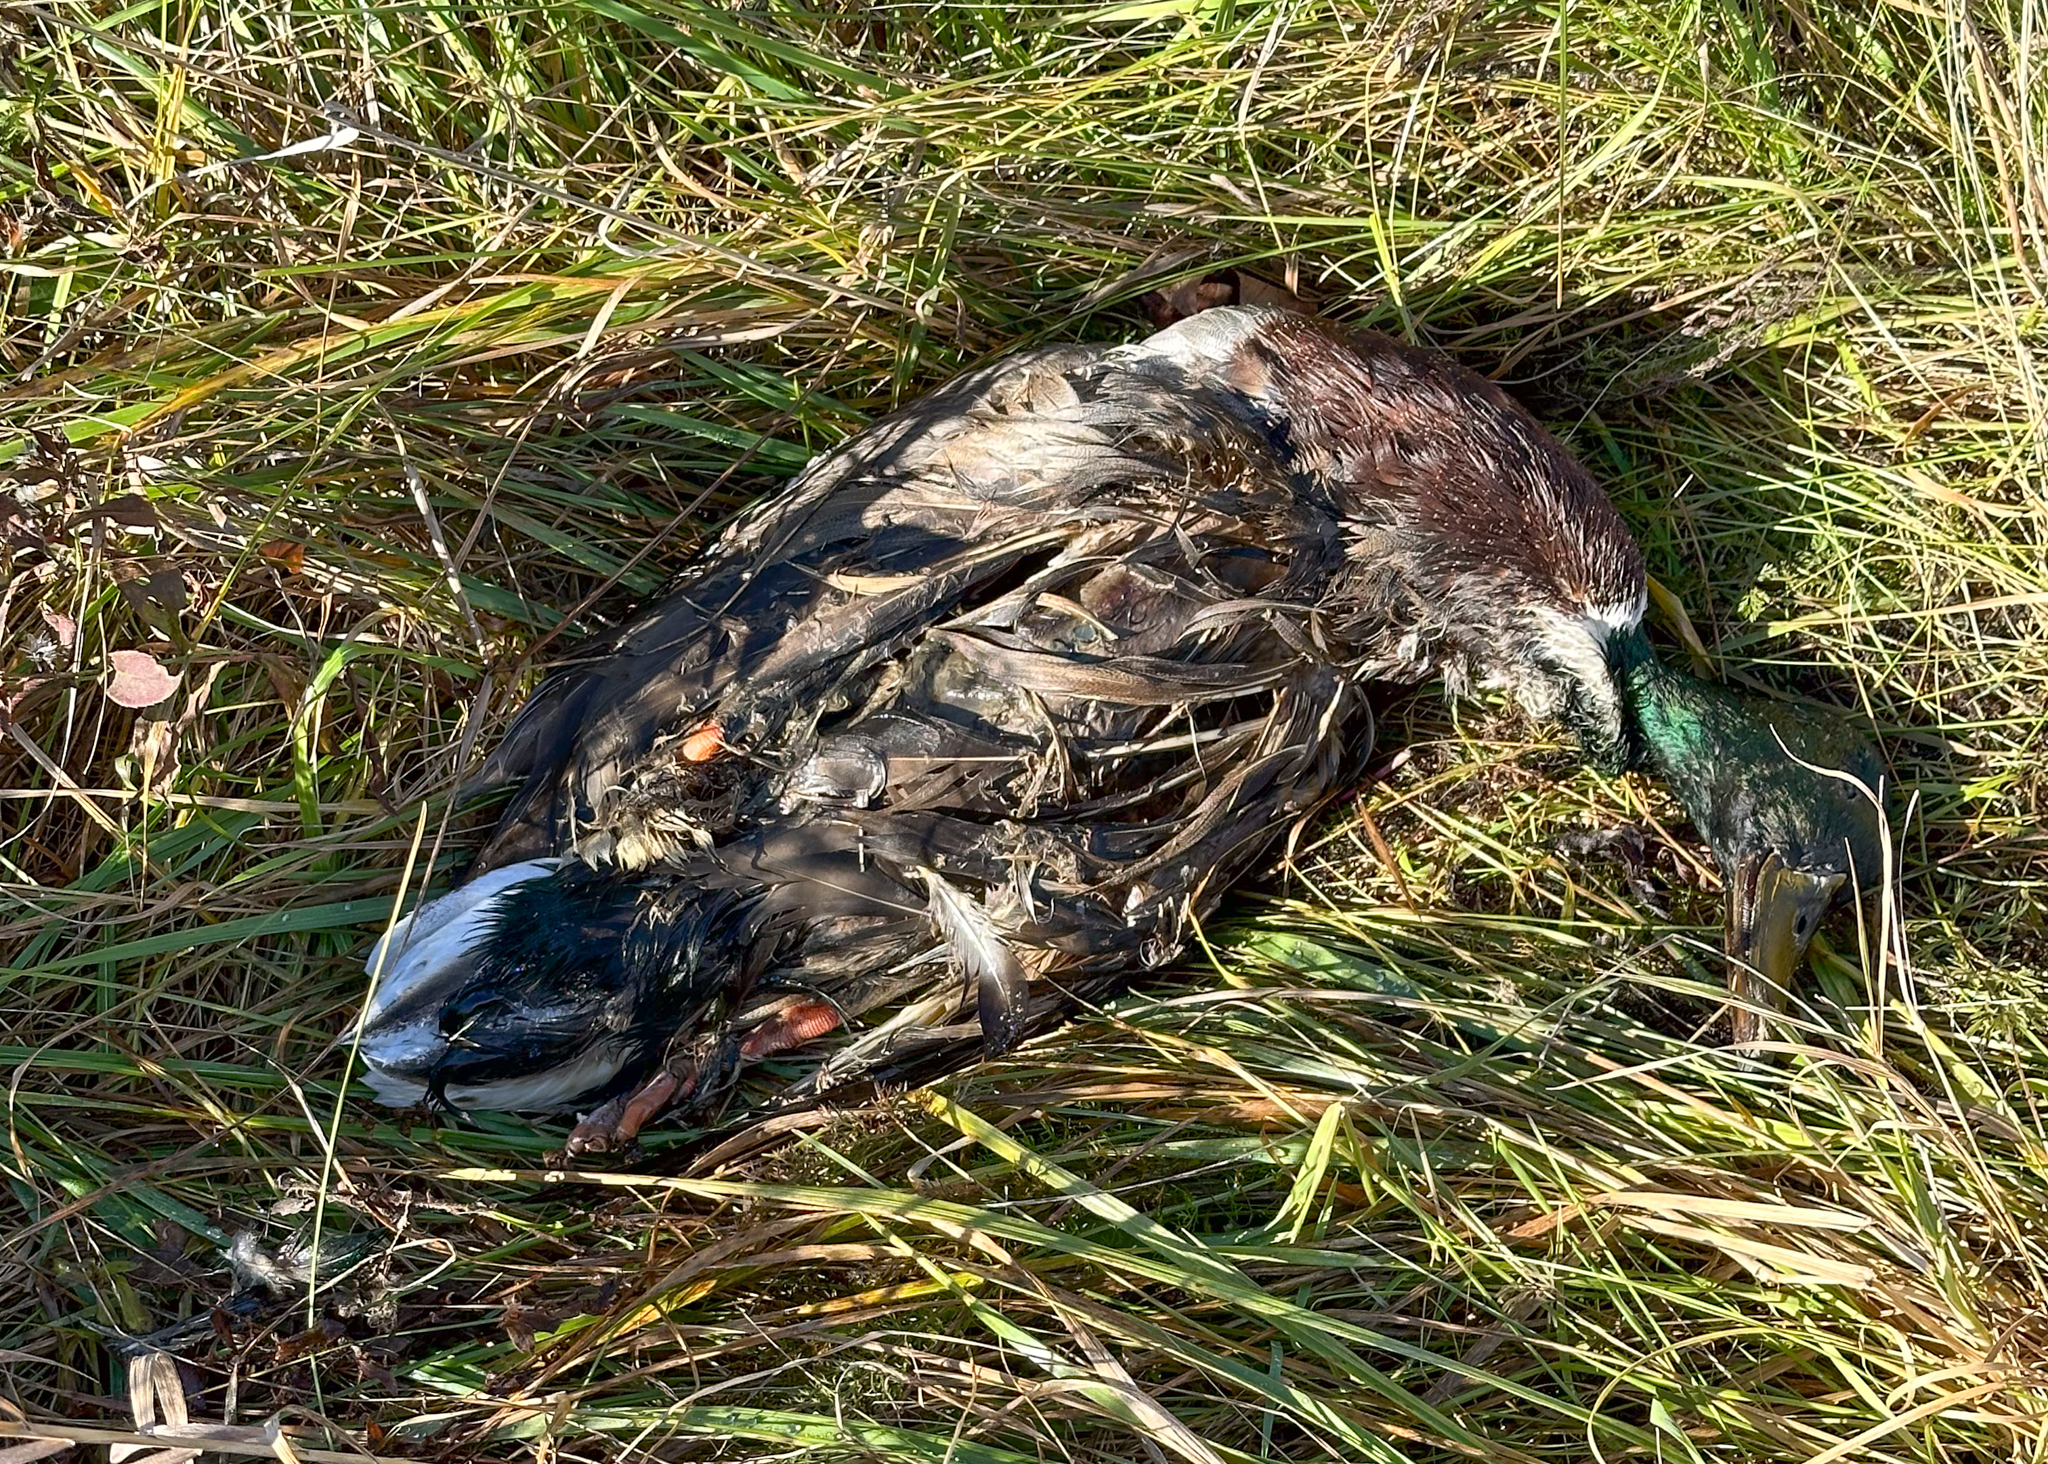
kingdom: Animalia
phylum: Chordata
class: Aves
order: Anseriformes
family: Anatidae
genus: Anas
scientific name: Anas platyrhynchos
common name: Mallard
